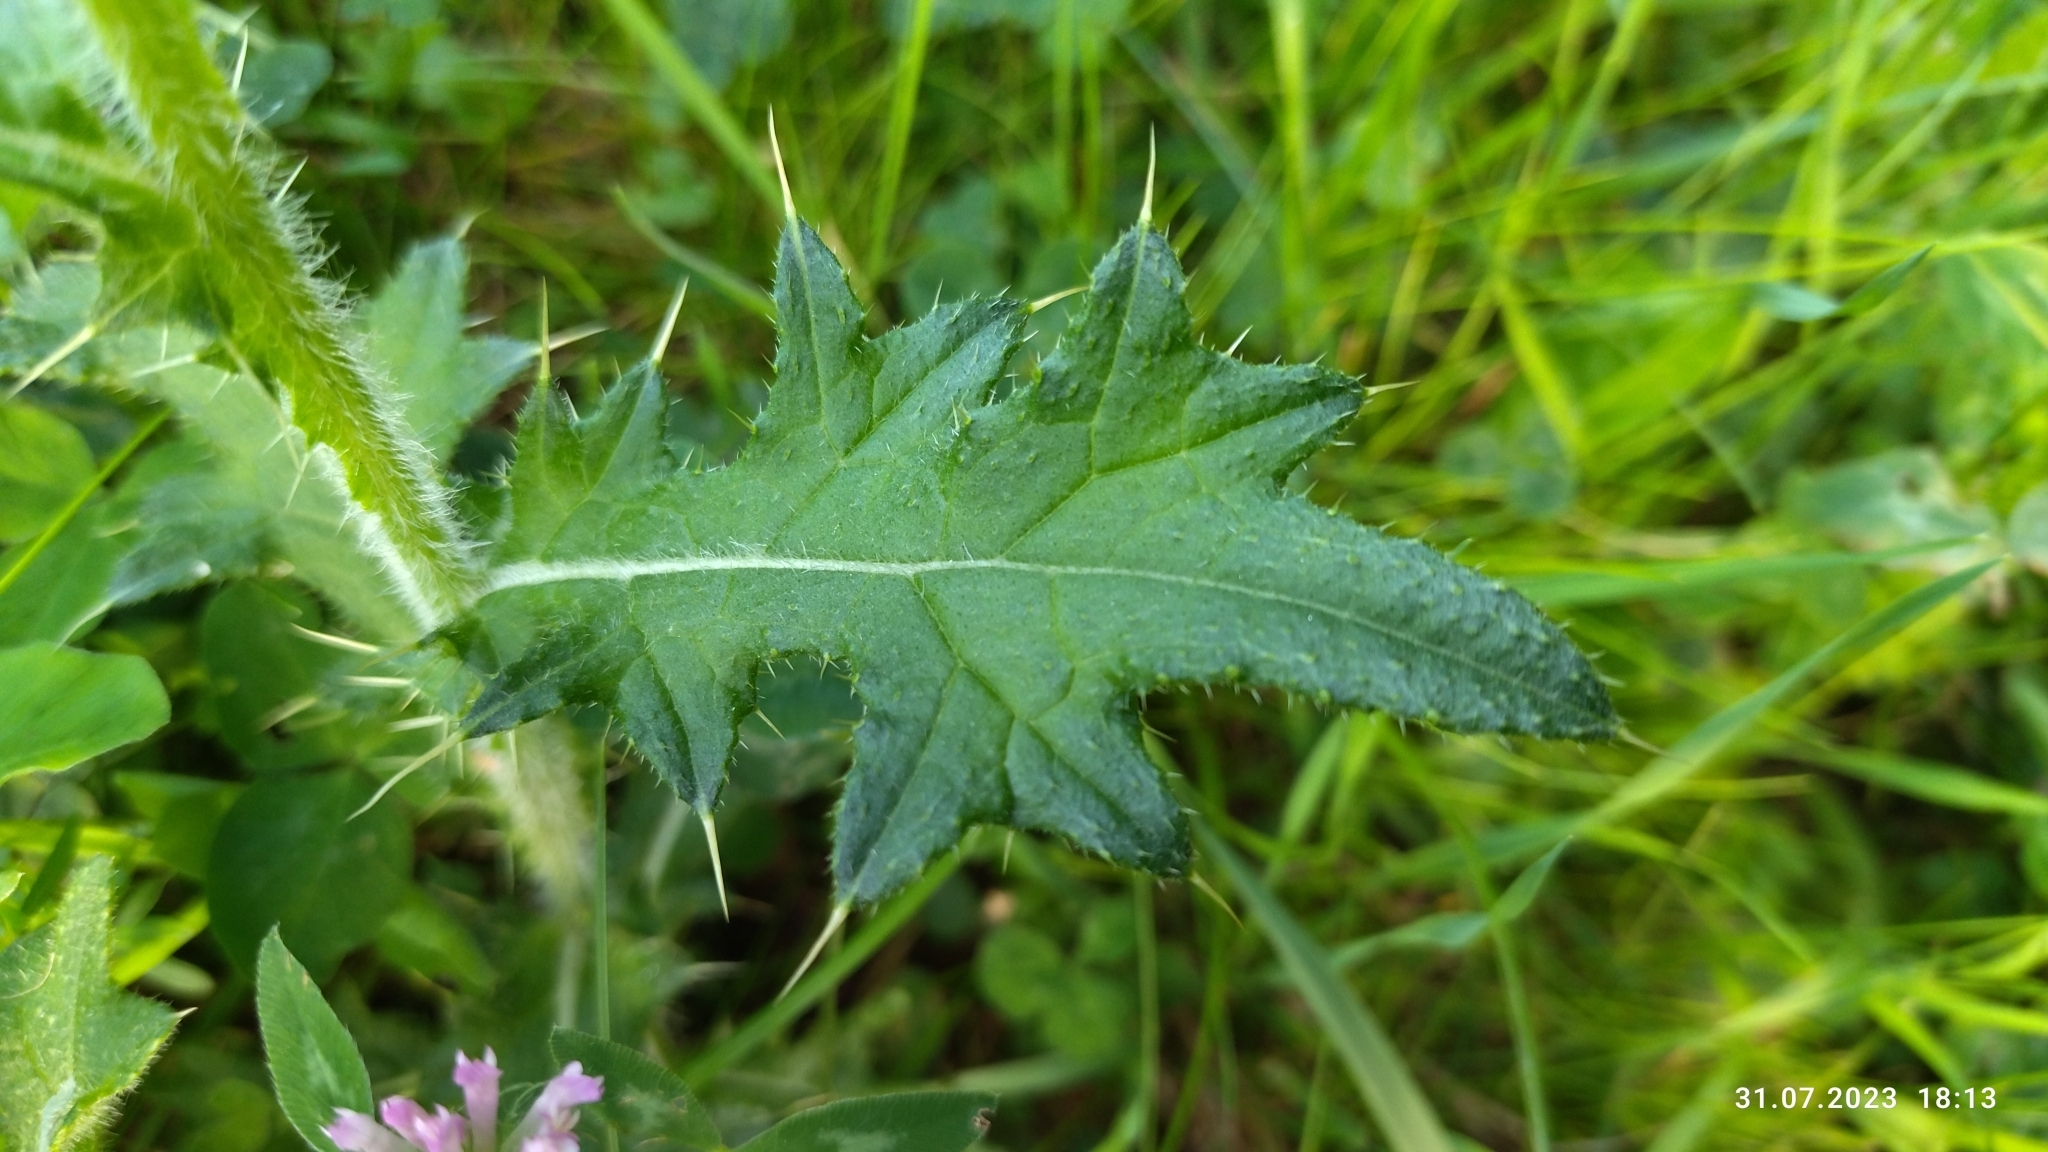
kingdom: Plantae
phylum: Tracheophyta
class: Magnoliopsida
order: Asterales
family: Asteraceae
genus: Cirsium
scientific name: Cirsium vulgare
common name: Bull thistle
